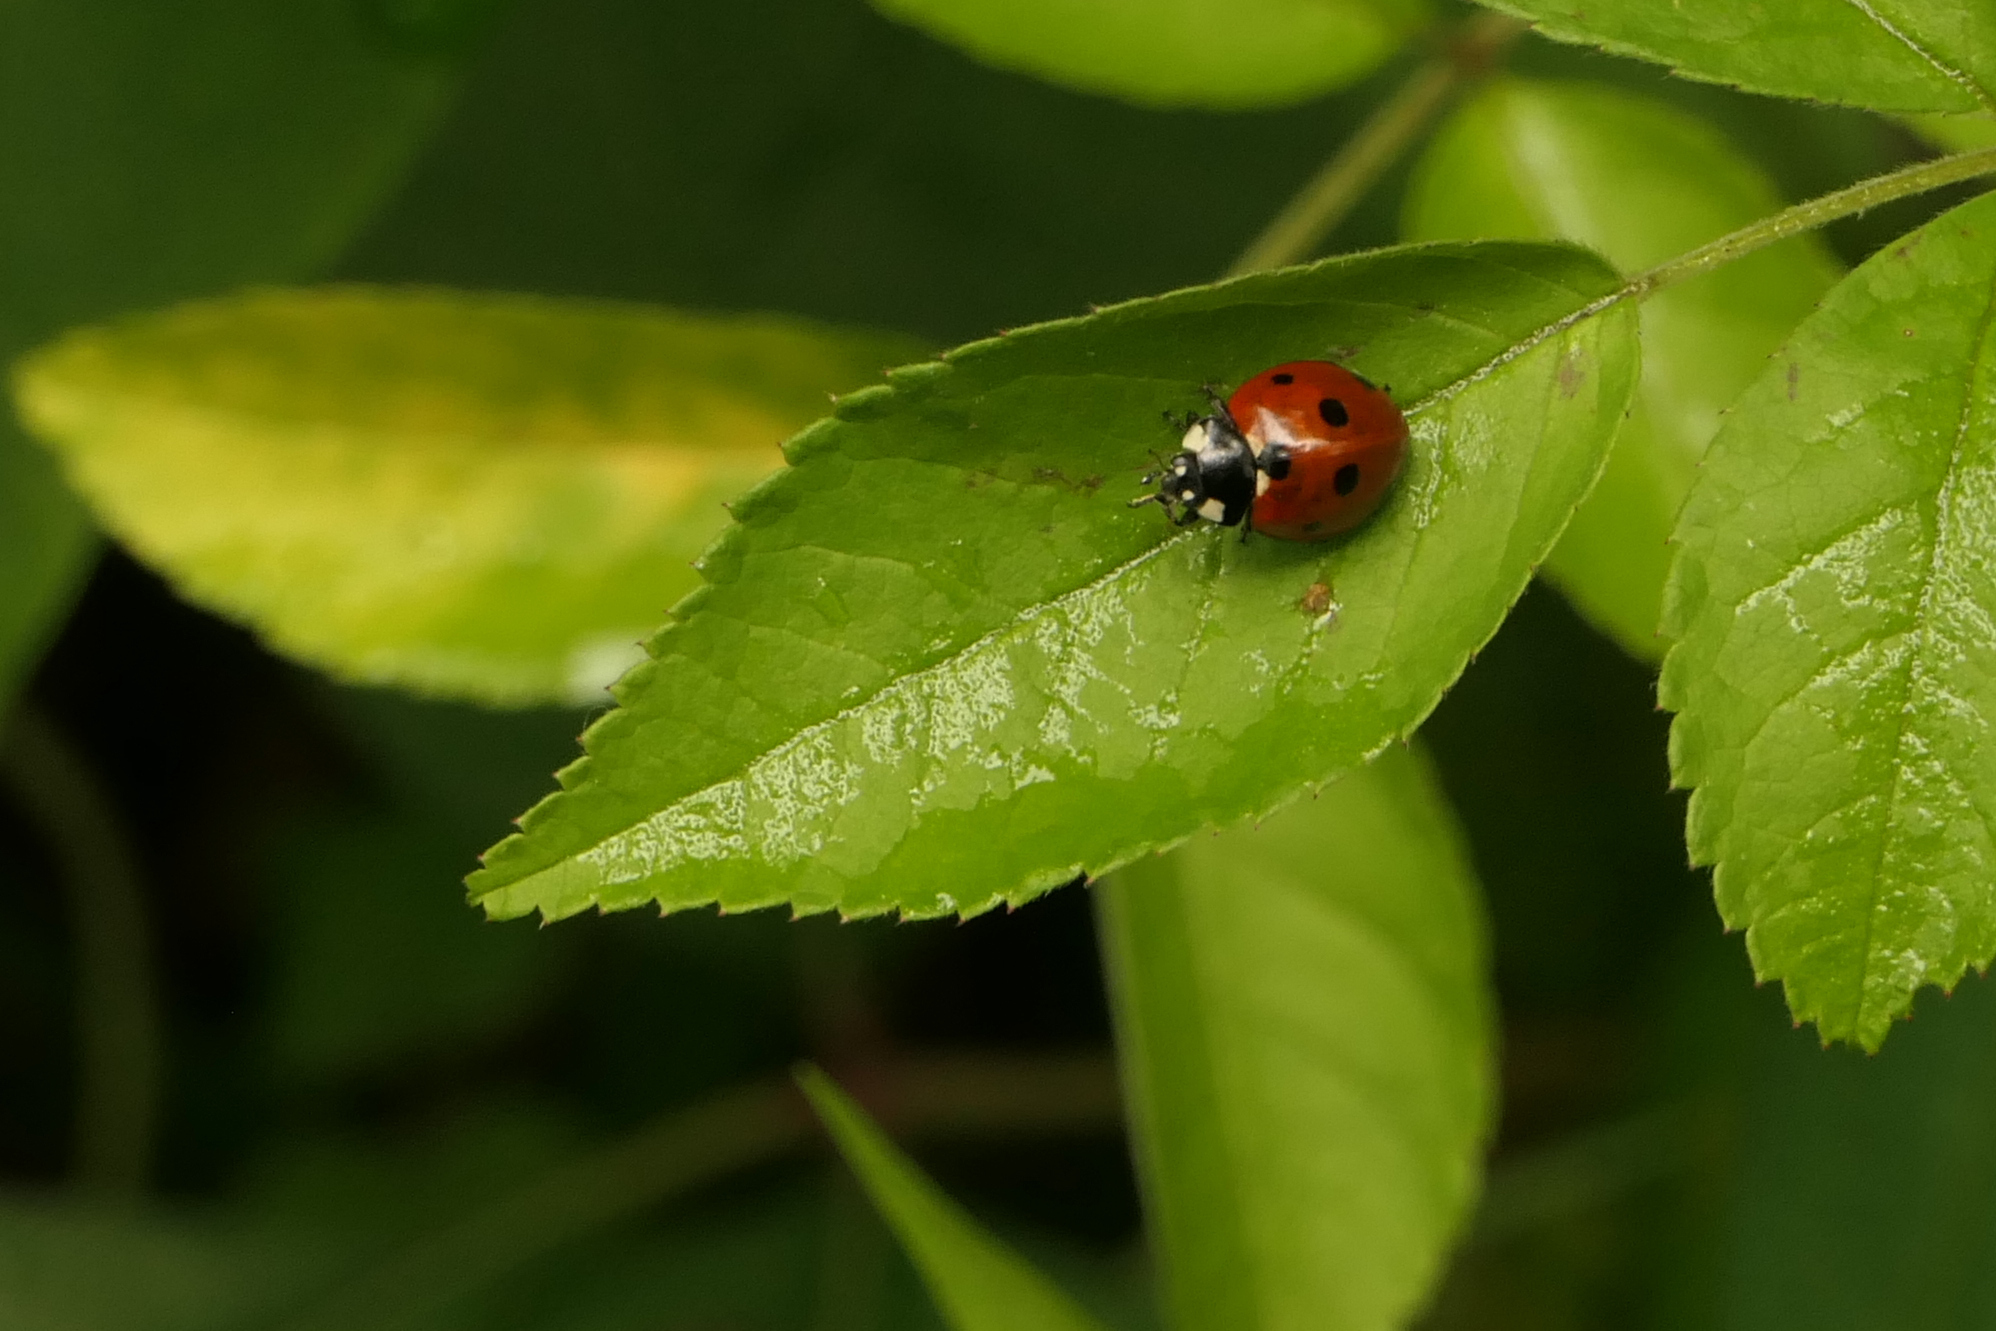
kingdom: Animalia
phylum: Arthropoda
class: Insecta
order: Coleoptera
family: Coccinellidae
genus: Coccinella
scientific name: Coccinella septempunctata
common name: Sevenspotted lady beetle
